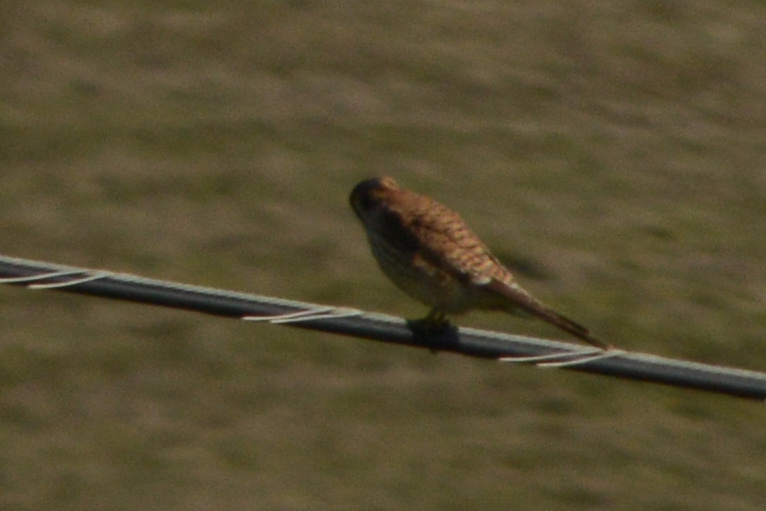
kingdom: Animalia
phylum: Chordata
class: Aves
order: Falconiformes
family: Falconidae
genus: Falco
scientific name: Falco sparverius
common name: American kestrel
